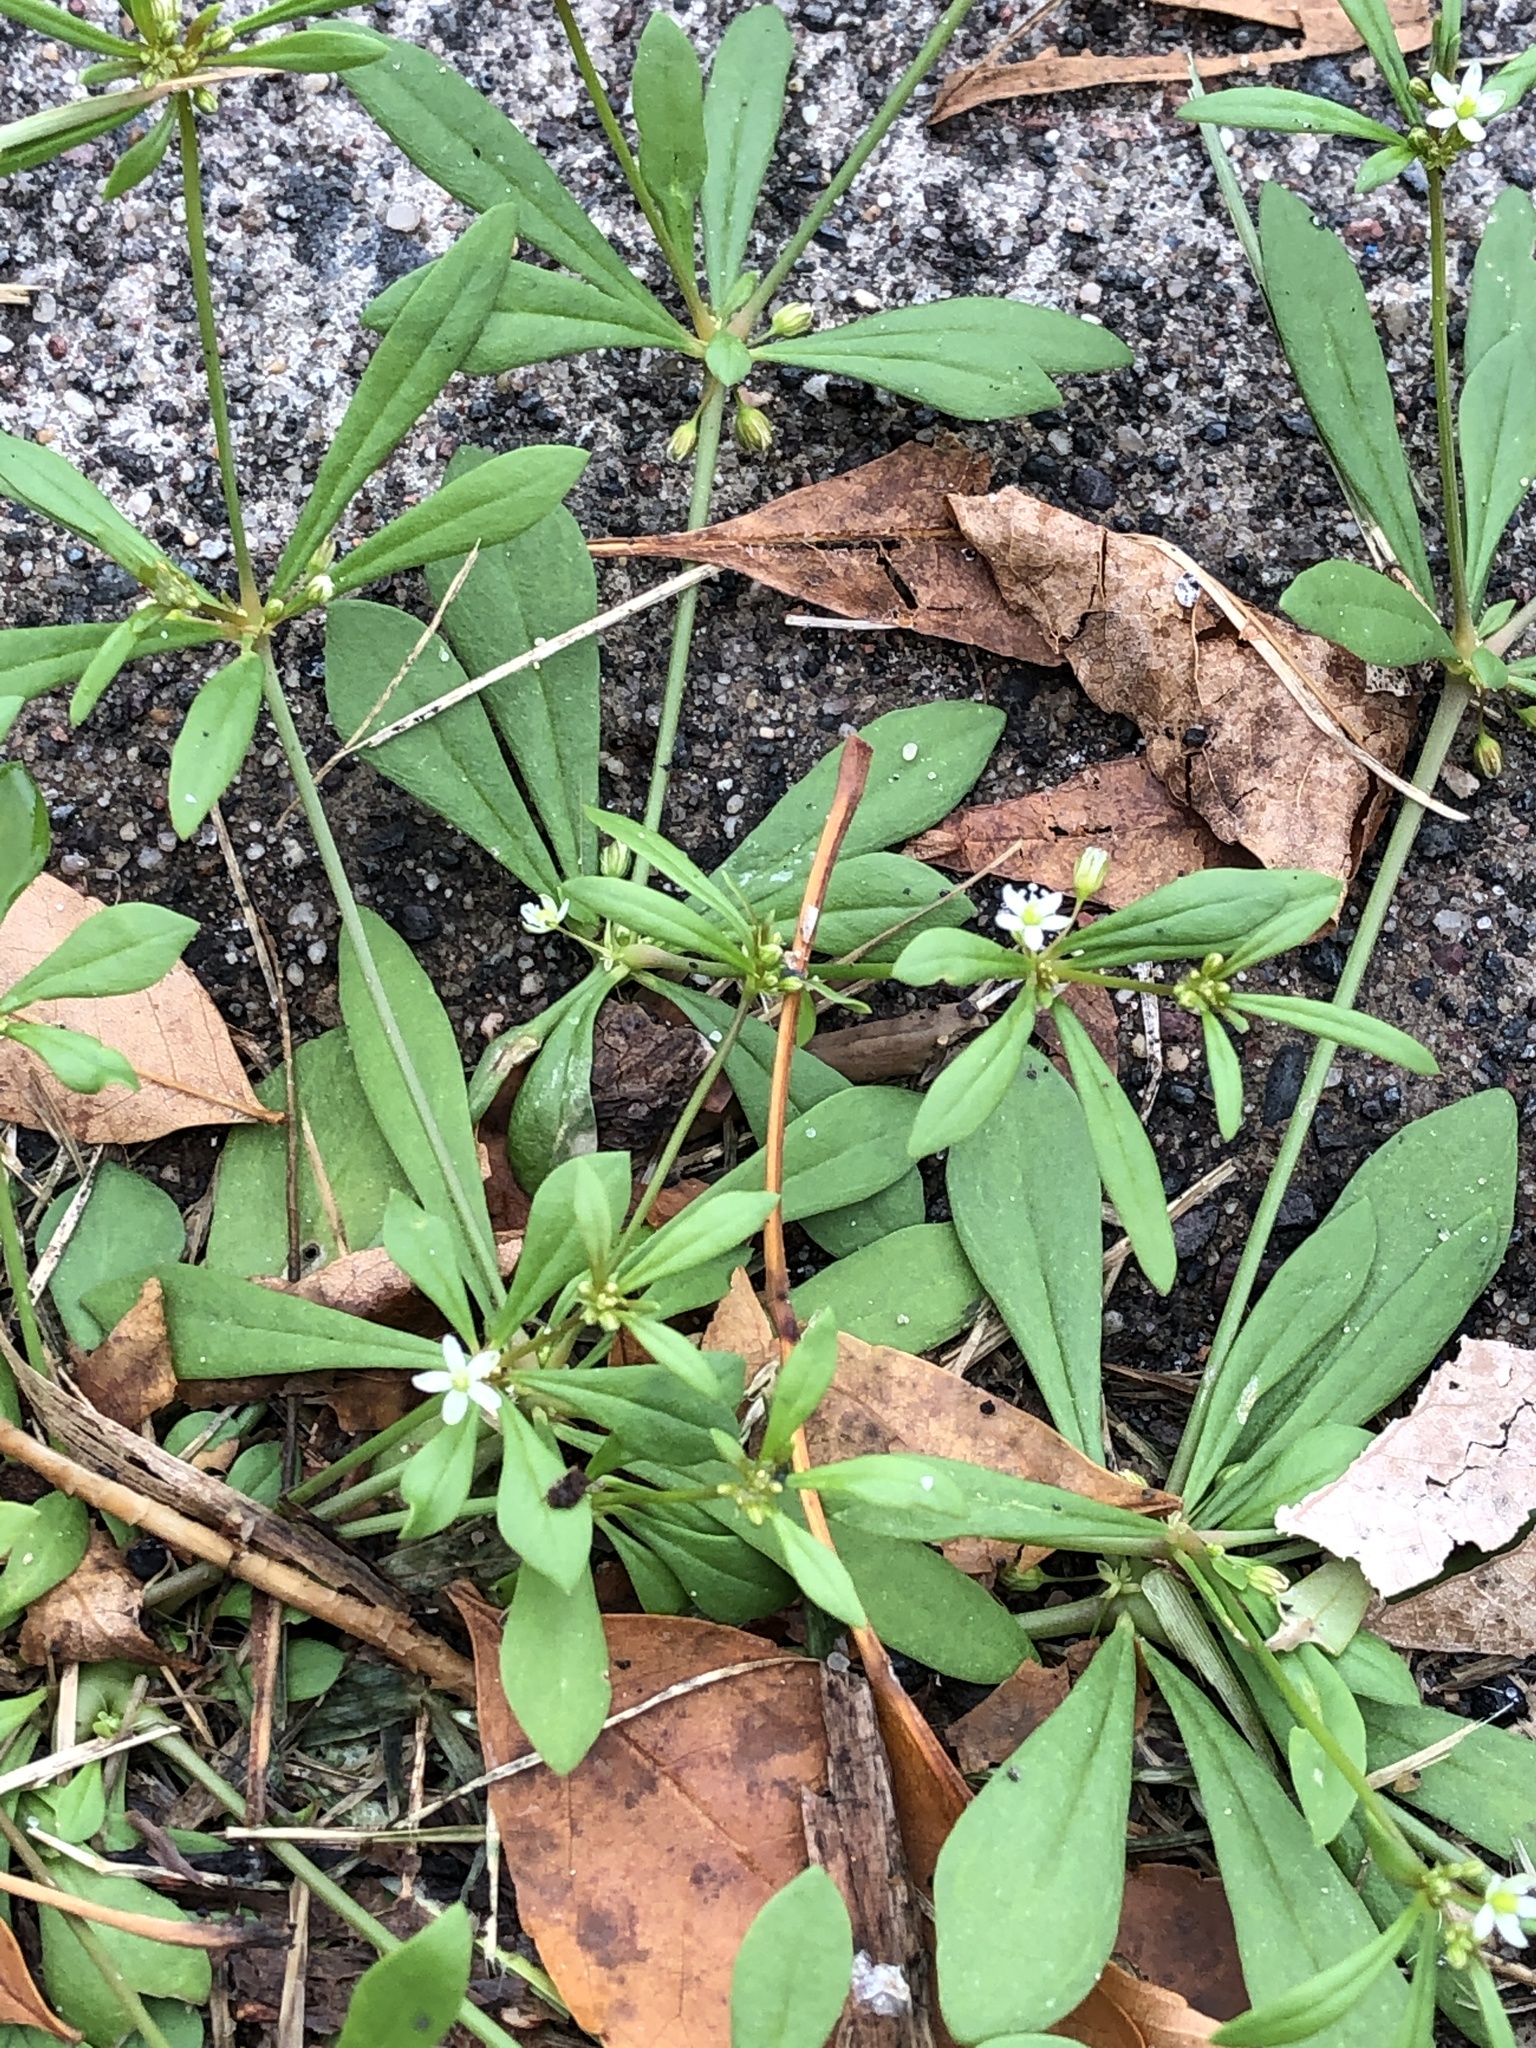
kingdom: Plantae
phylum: Tracheophyta
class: Magnoliopsida
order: Caryophyllales
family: Molluginaceae
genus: Mollugo
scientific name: Mollugo verticillata
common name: Green carpetweed
